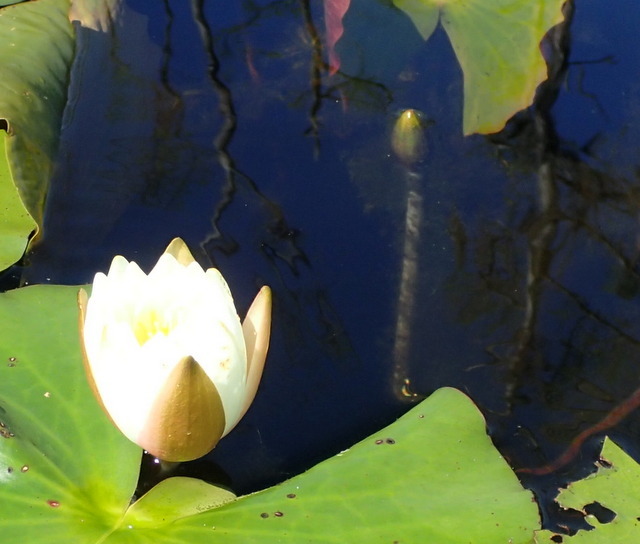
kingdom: Plantae
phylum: Tracheophyta
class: Magnoliopsida
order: Nymphaeales
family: Nymphaeaceae
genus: Nymphaea
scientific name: Nymphaea odorata
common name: Fragrant water-lily
